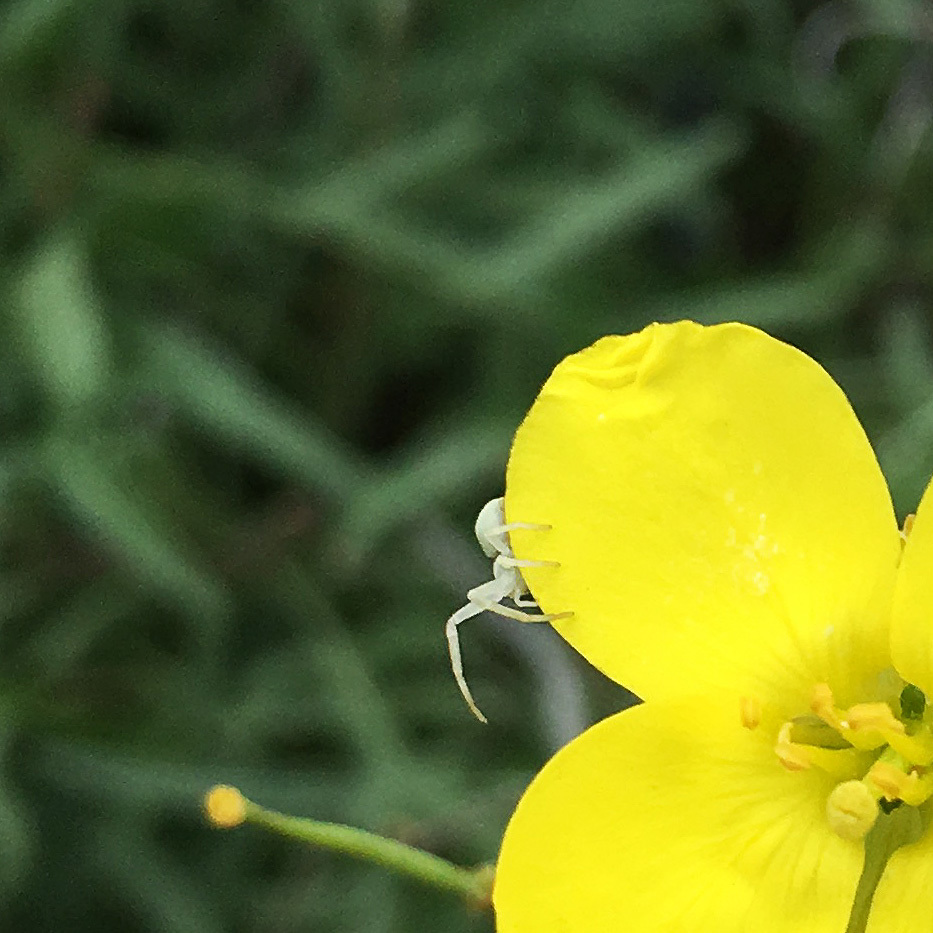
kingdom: Animalia
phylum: Arthropoda
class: Arachnida
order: Araneae
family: Thomisidae
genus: Misumena
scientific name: Misumena vatia
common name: Goldenrod crab spider
